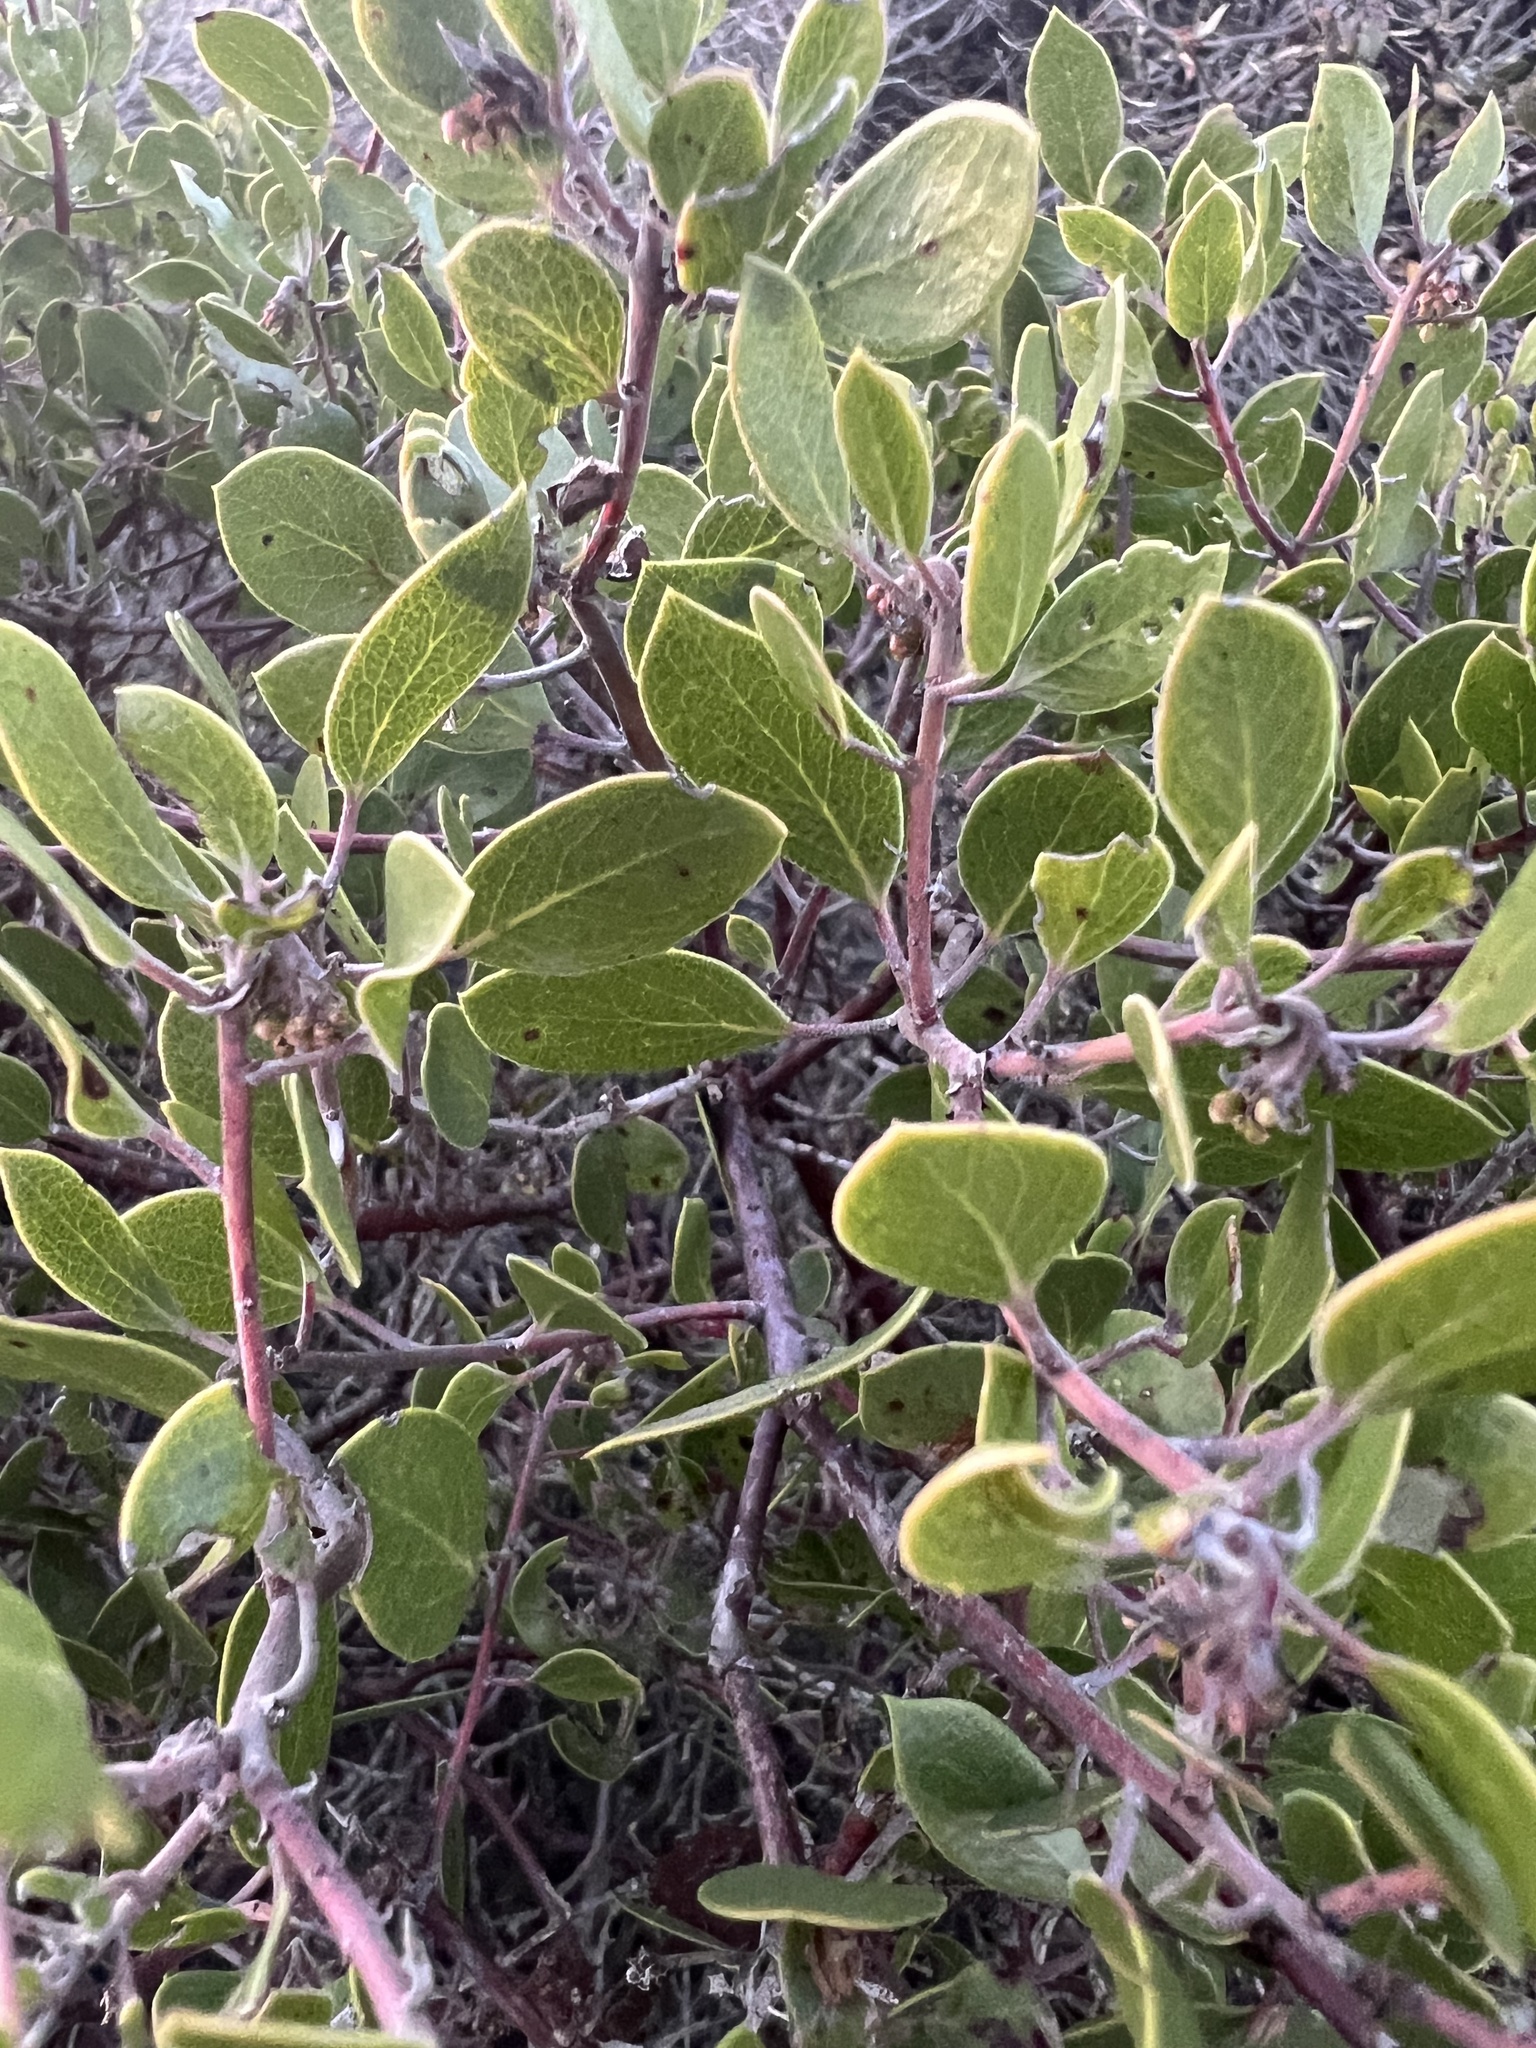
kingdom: Plantae
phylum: Tracheophyta
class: Magnoliopsida
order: Ericales
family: Ericaceae
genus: Arctostaphylos
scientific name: Arctostaphylos hookeri
